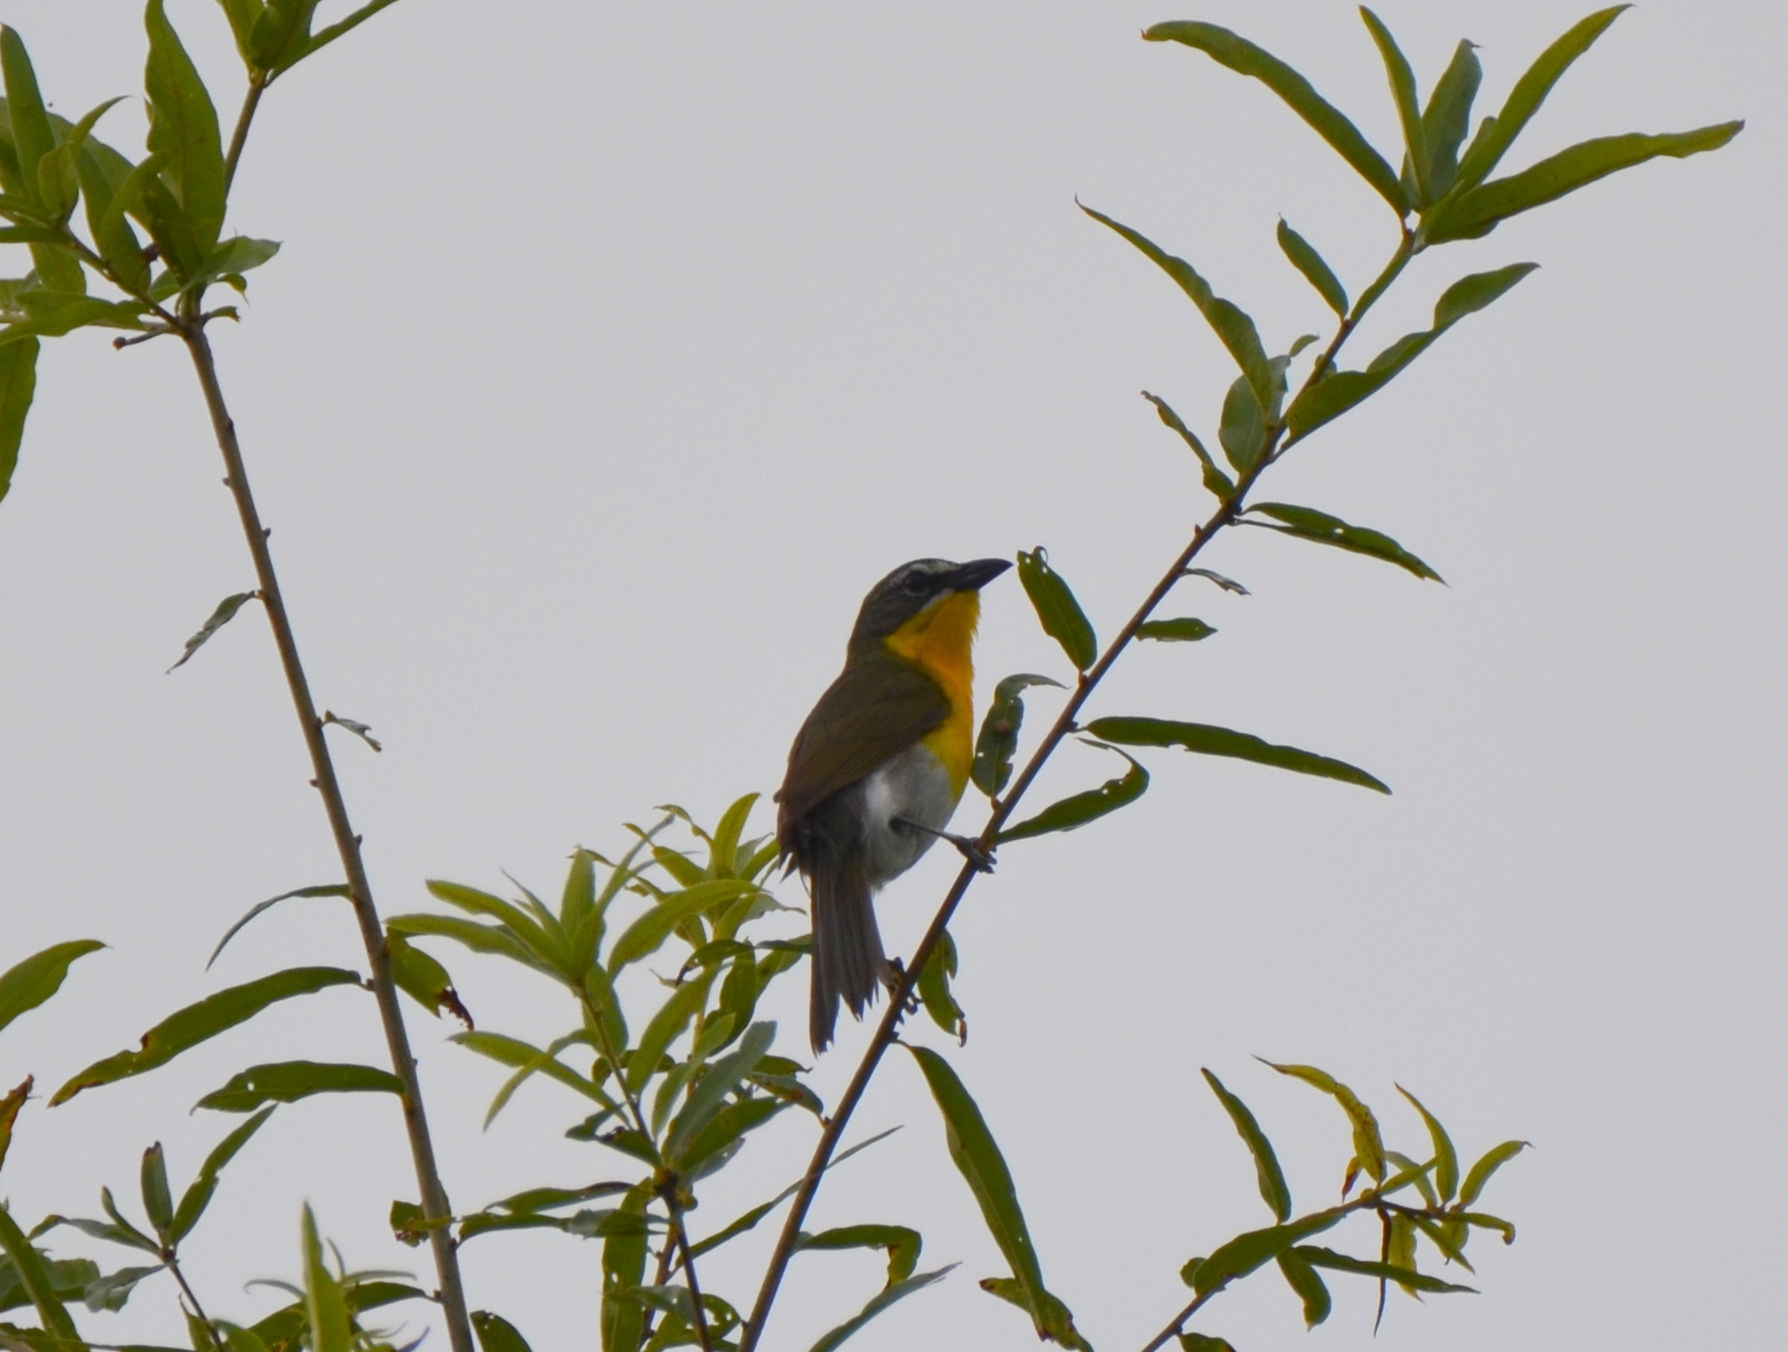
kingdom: Animalia
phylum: Chordata
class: Aves
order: Passeriformes
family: Parulidae
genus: Icteria
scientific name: Icteria virens
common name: Yellow-breasted chat
